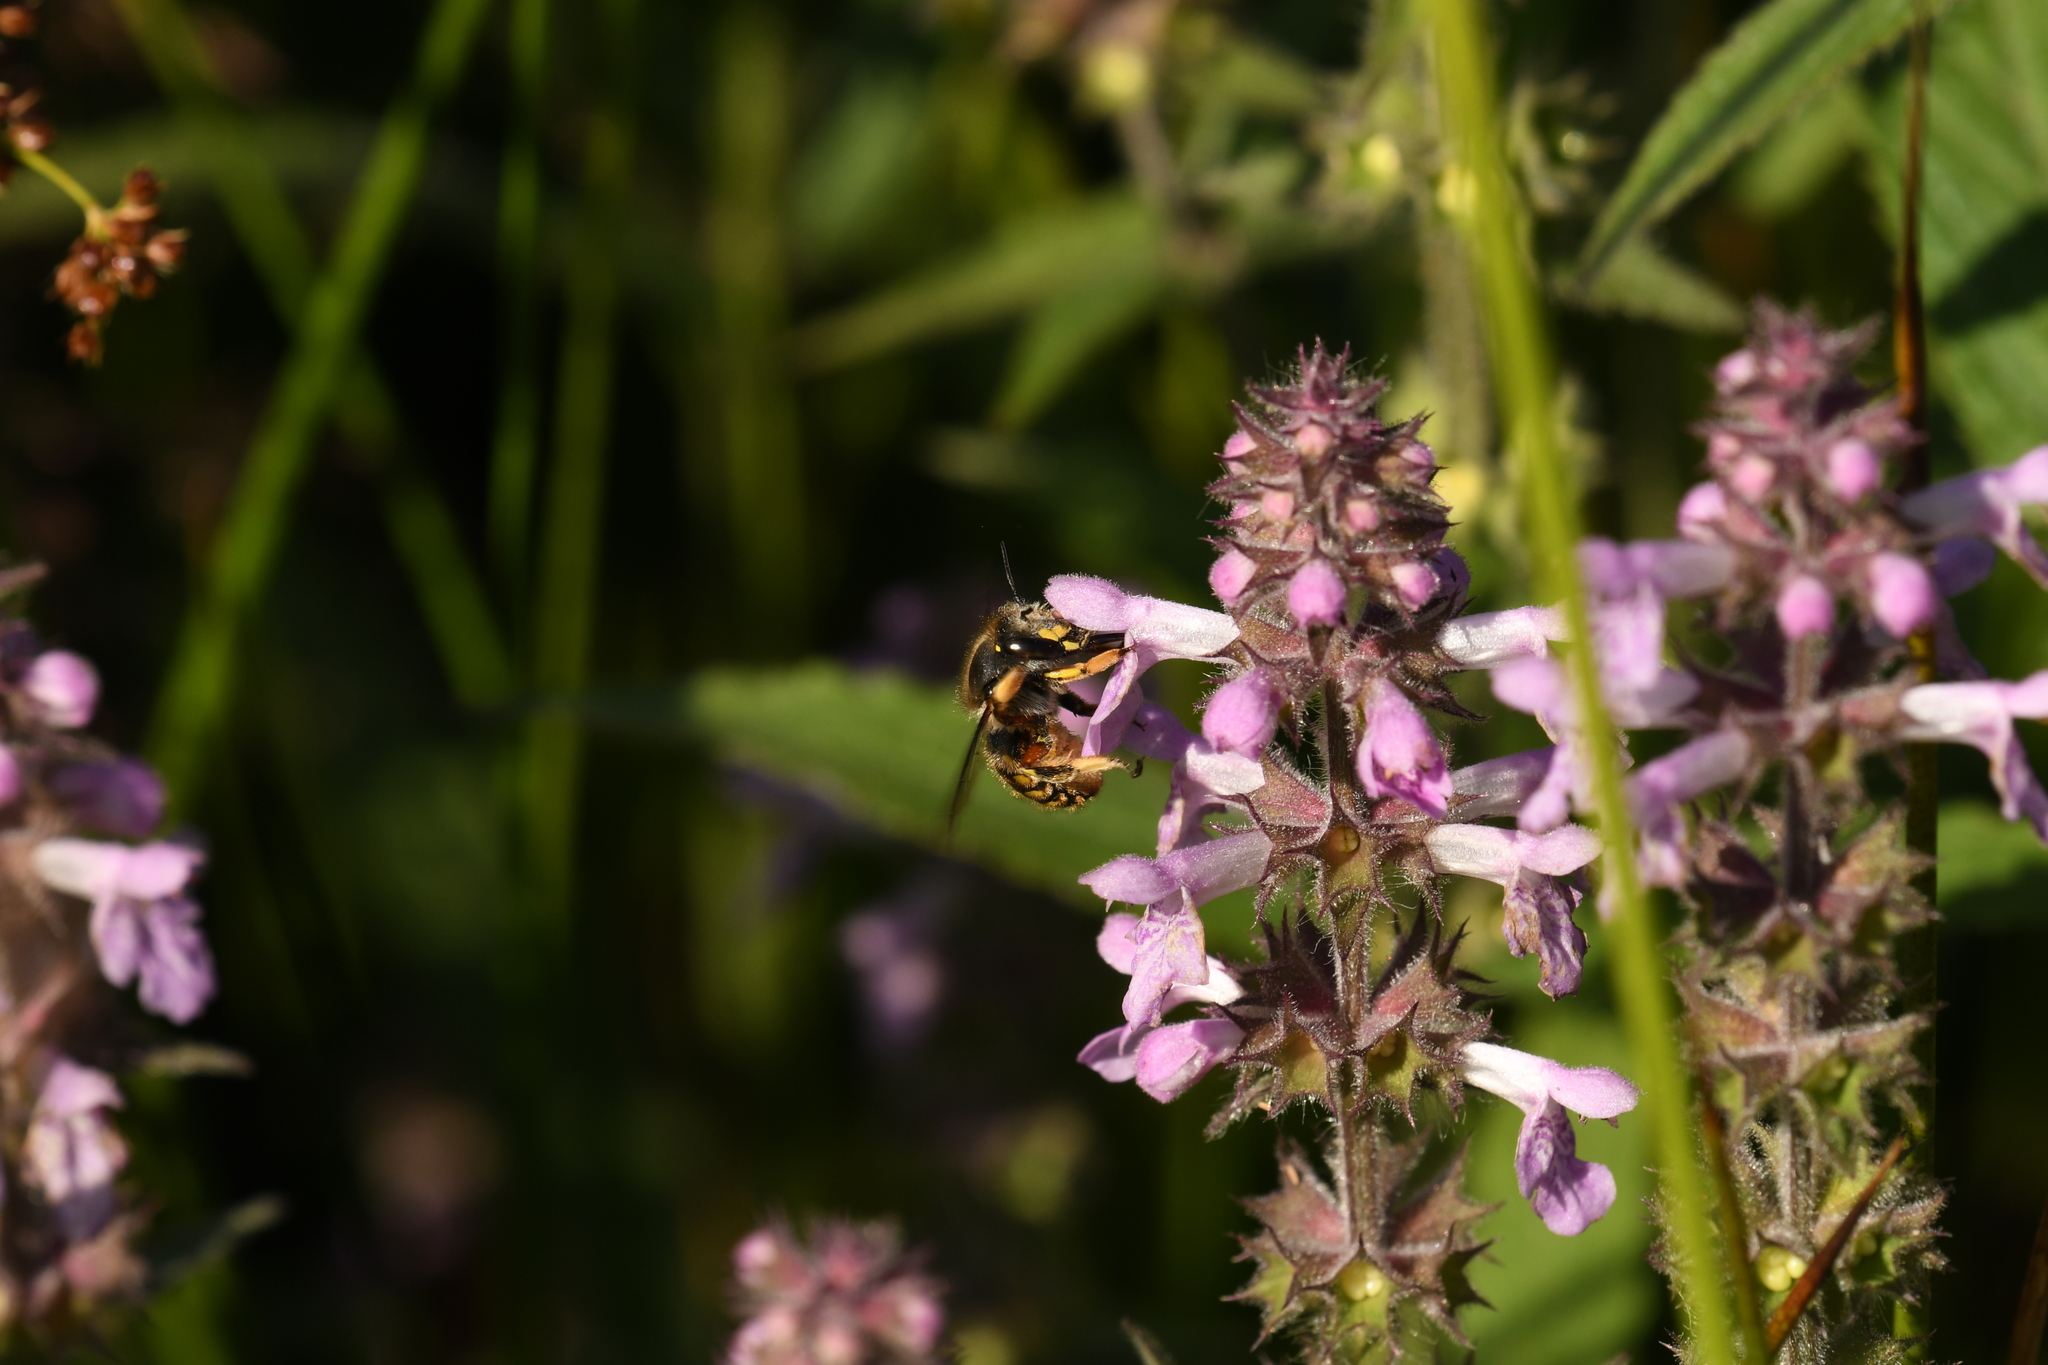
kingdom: Animalia
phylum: Arthropoda
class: Insecta
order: Hymenoptera
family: Megachilidae
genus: Anthidium
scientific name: Anthidium manicatum
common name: Wool carder bee
